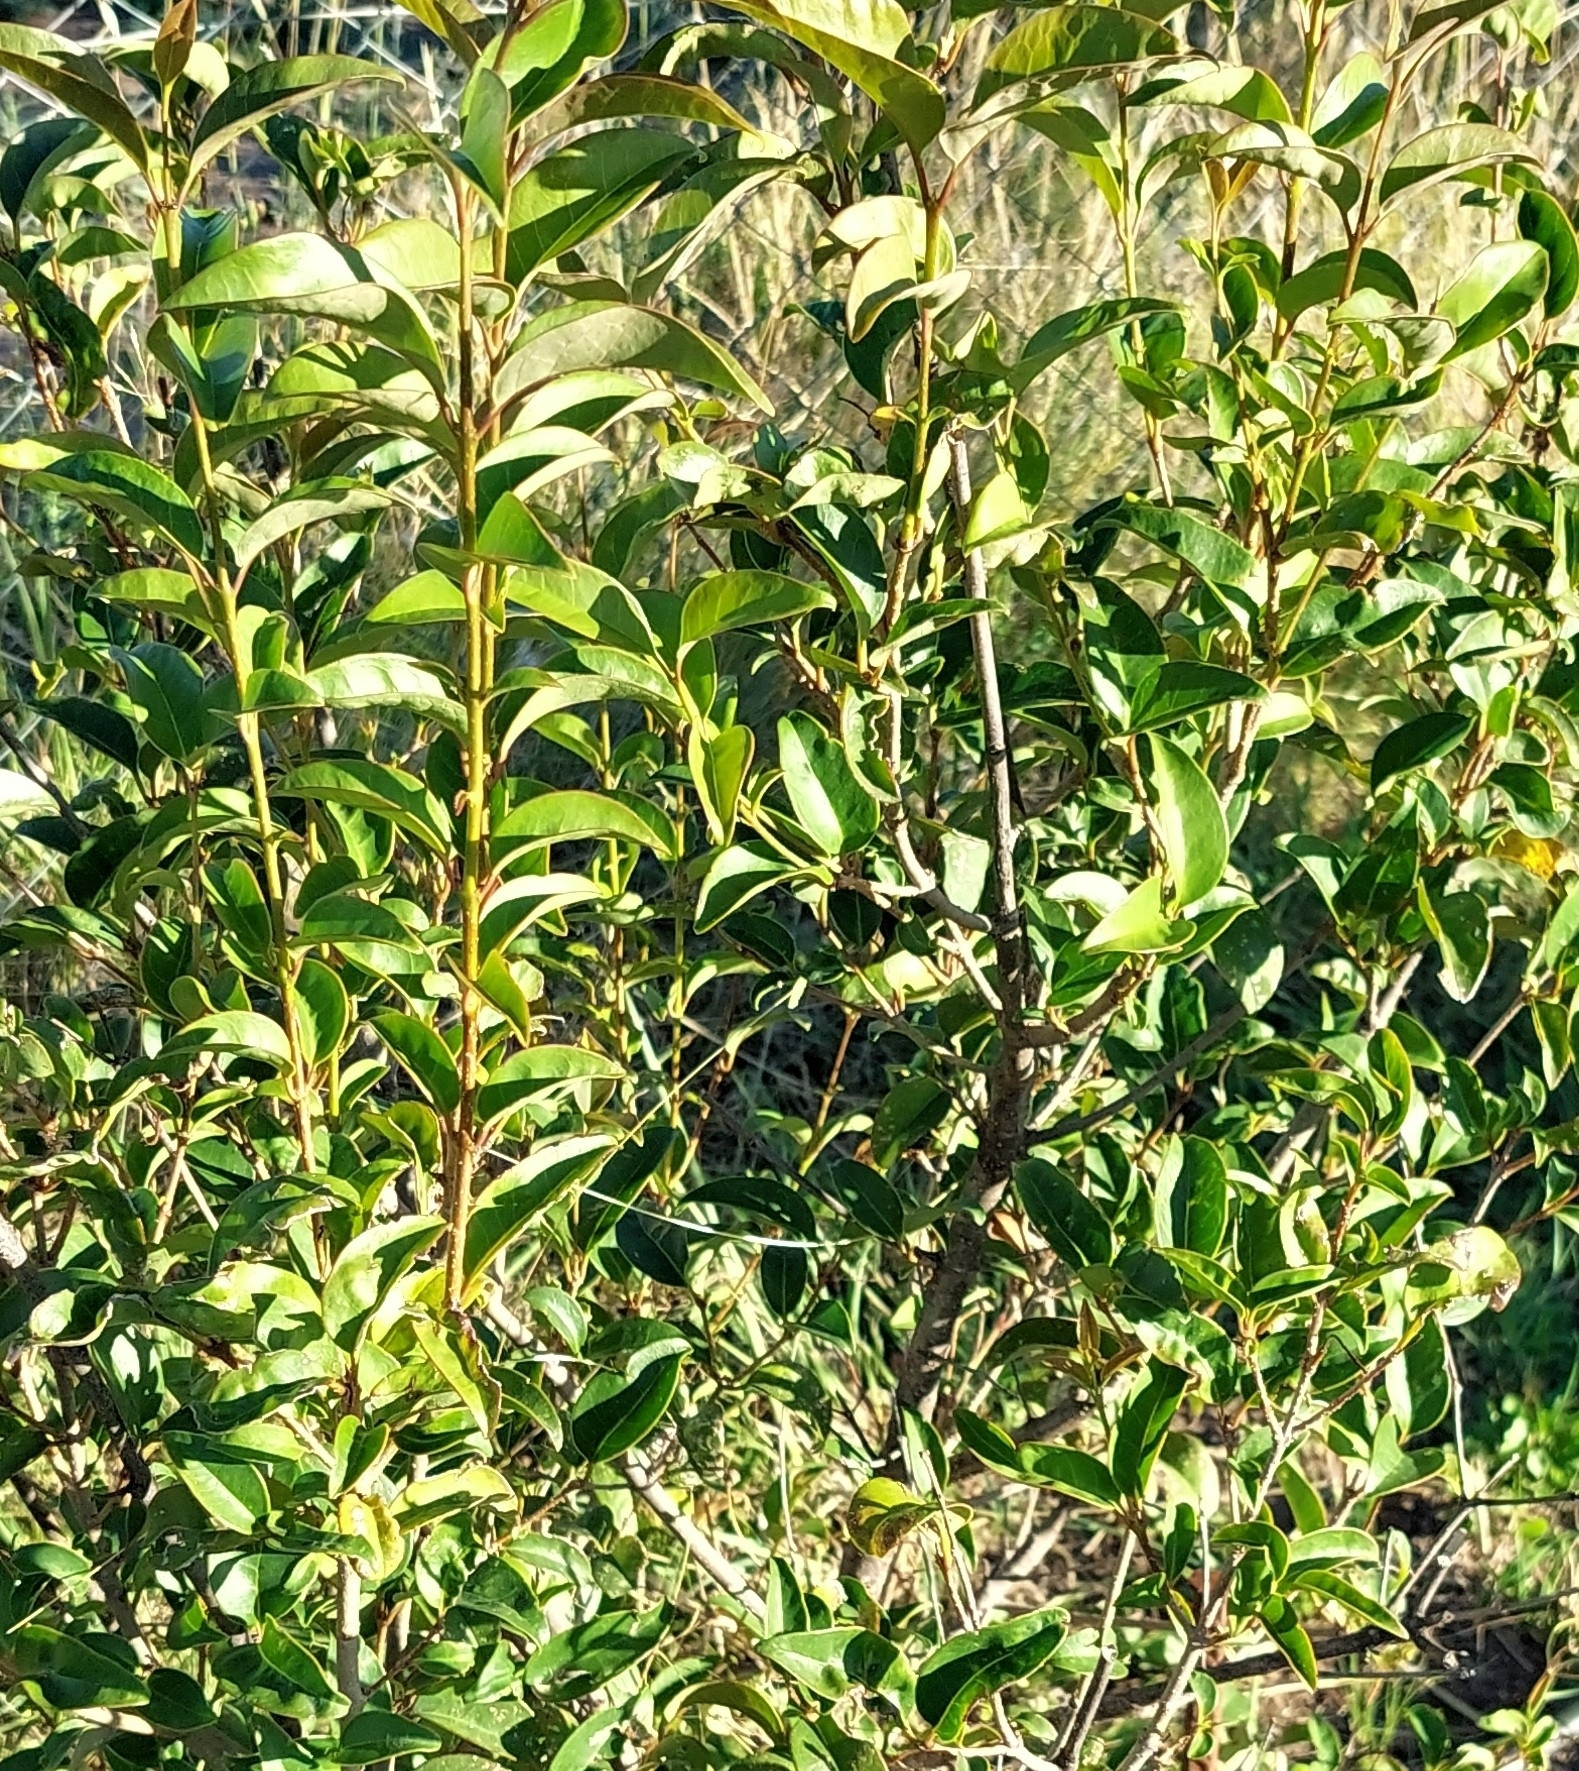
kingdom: Plantae
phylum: Tracheophyta
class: Magnoliopsida
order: Lamiales
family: Oleaceae
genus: Ligustrum
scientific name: Ligustrum lucidum
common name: Glossy privet
